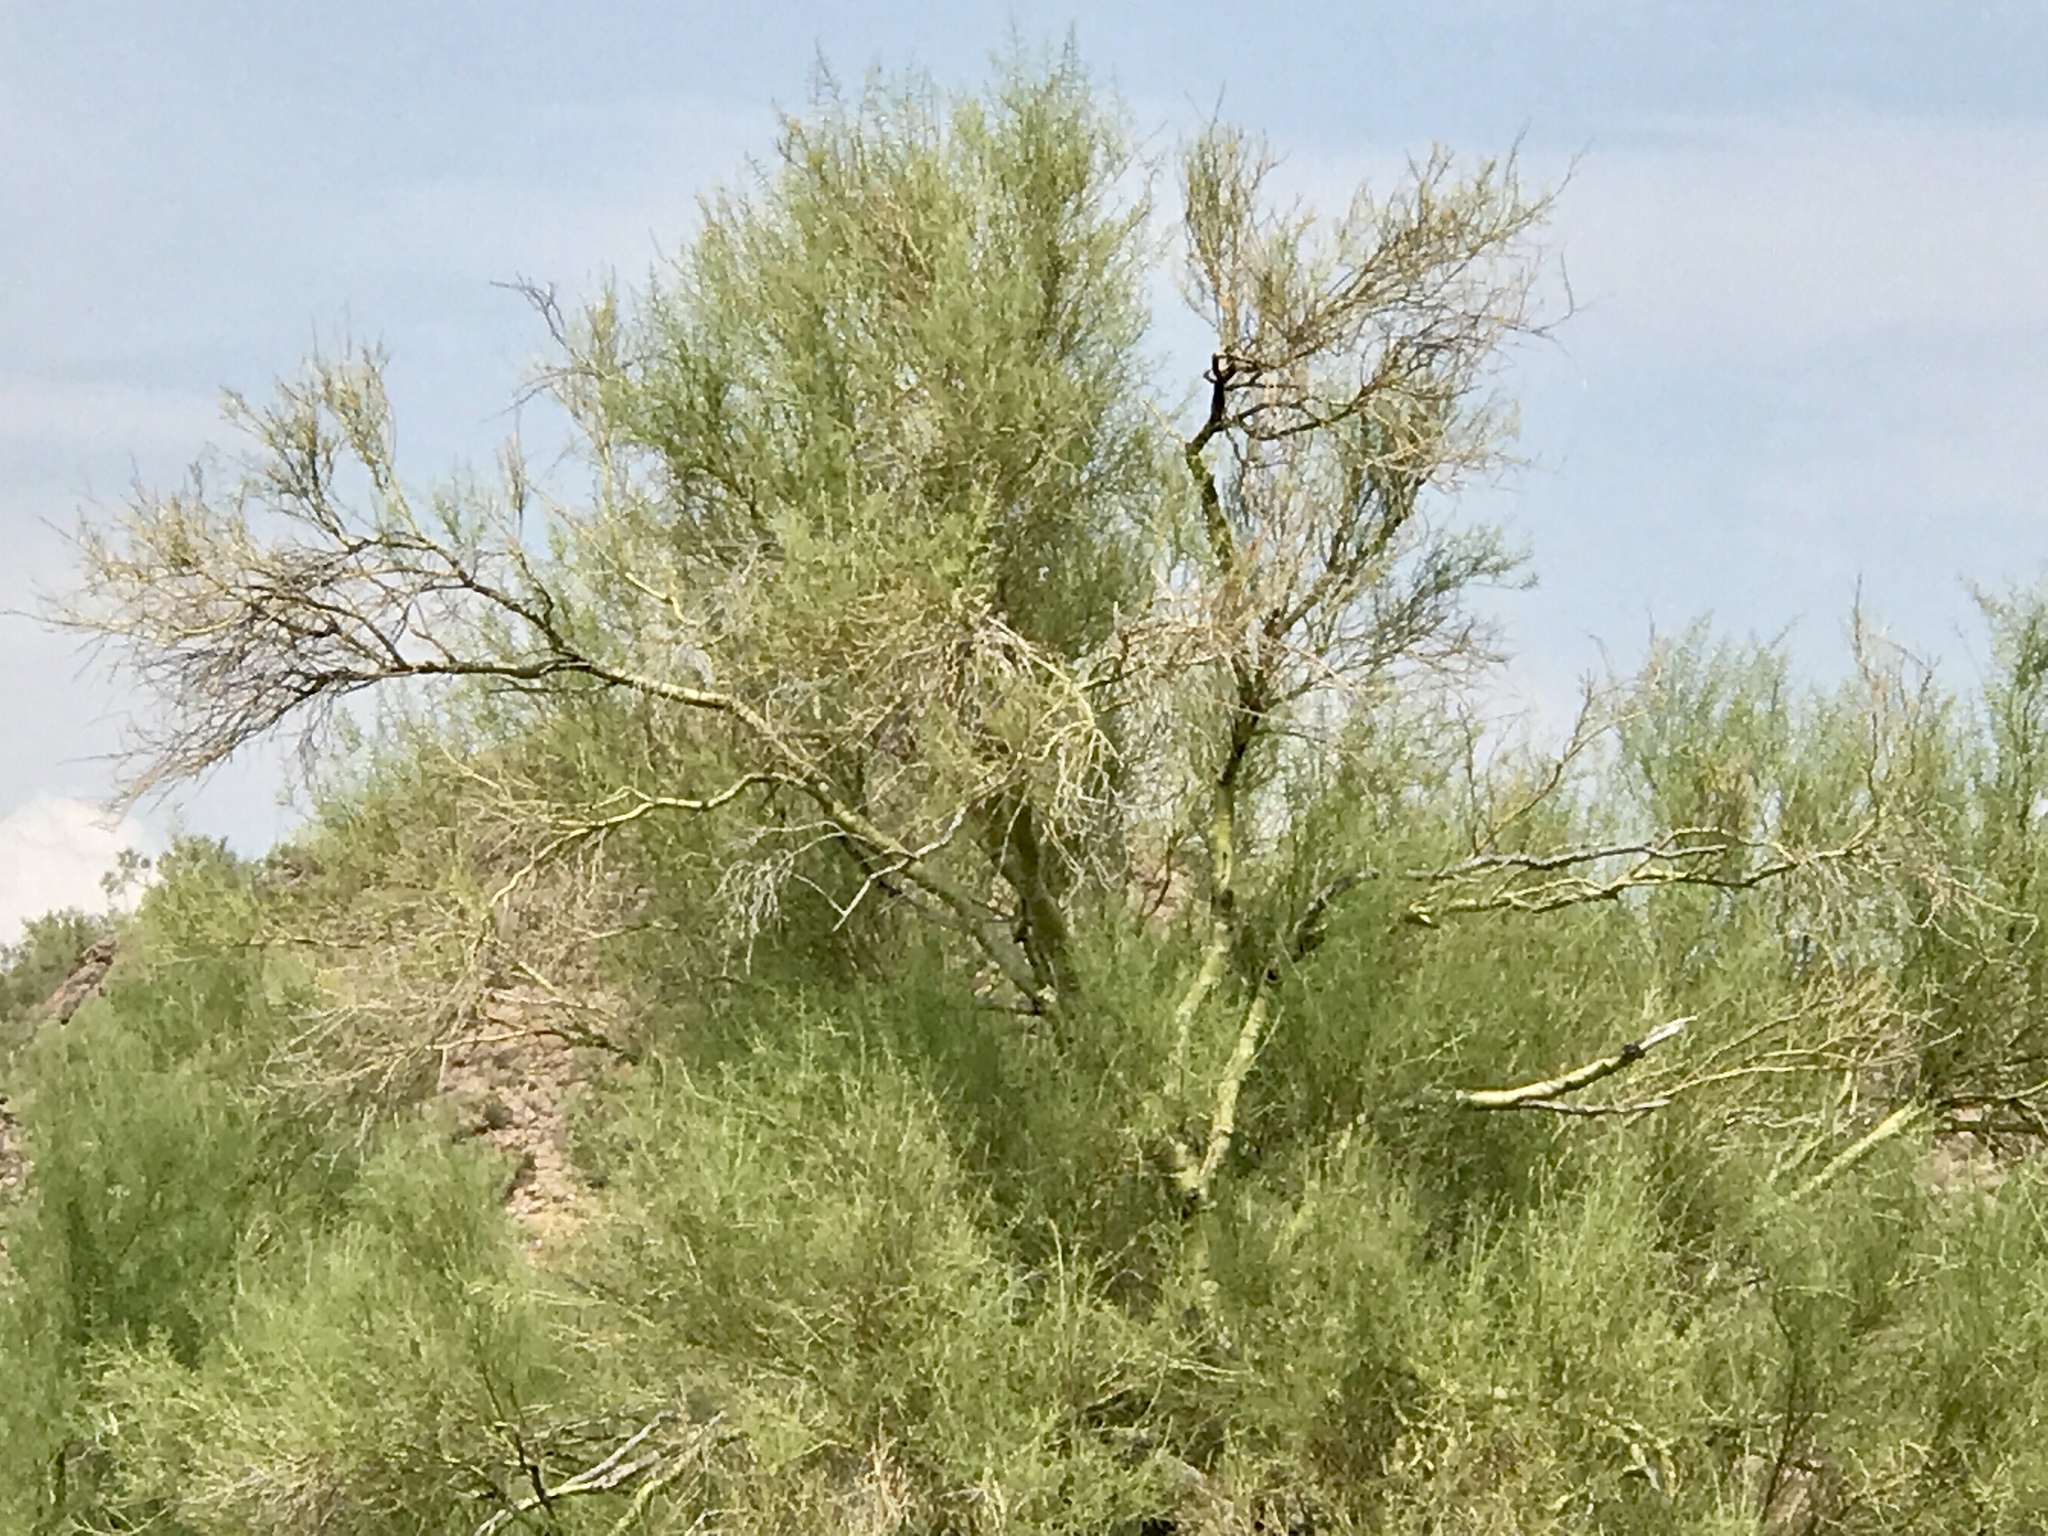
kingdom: Plantae
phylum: Tracheophyta
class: Magnoliopsida
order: Fabales
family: Fabaceae
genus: Parkinsonia
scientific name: Parkinsonia microphylla
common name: Yellow paloverde
